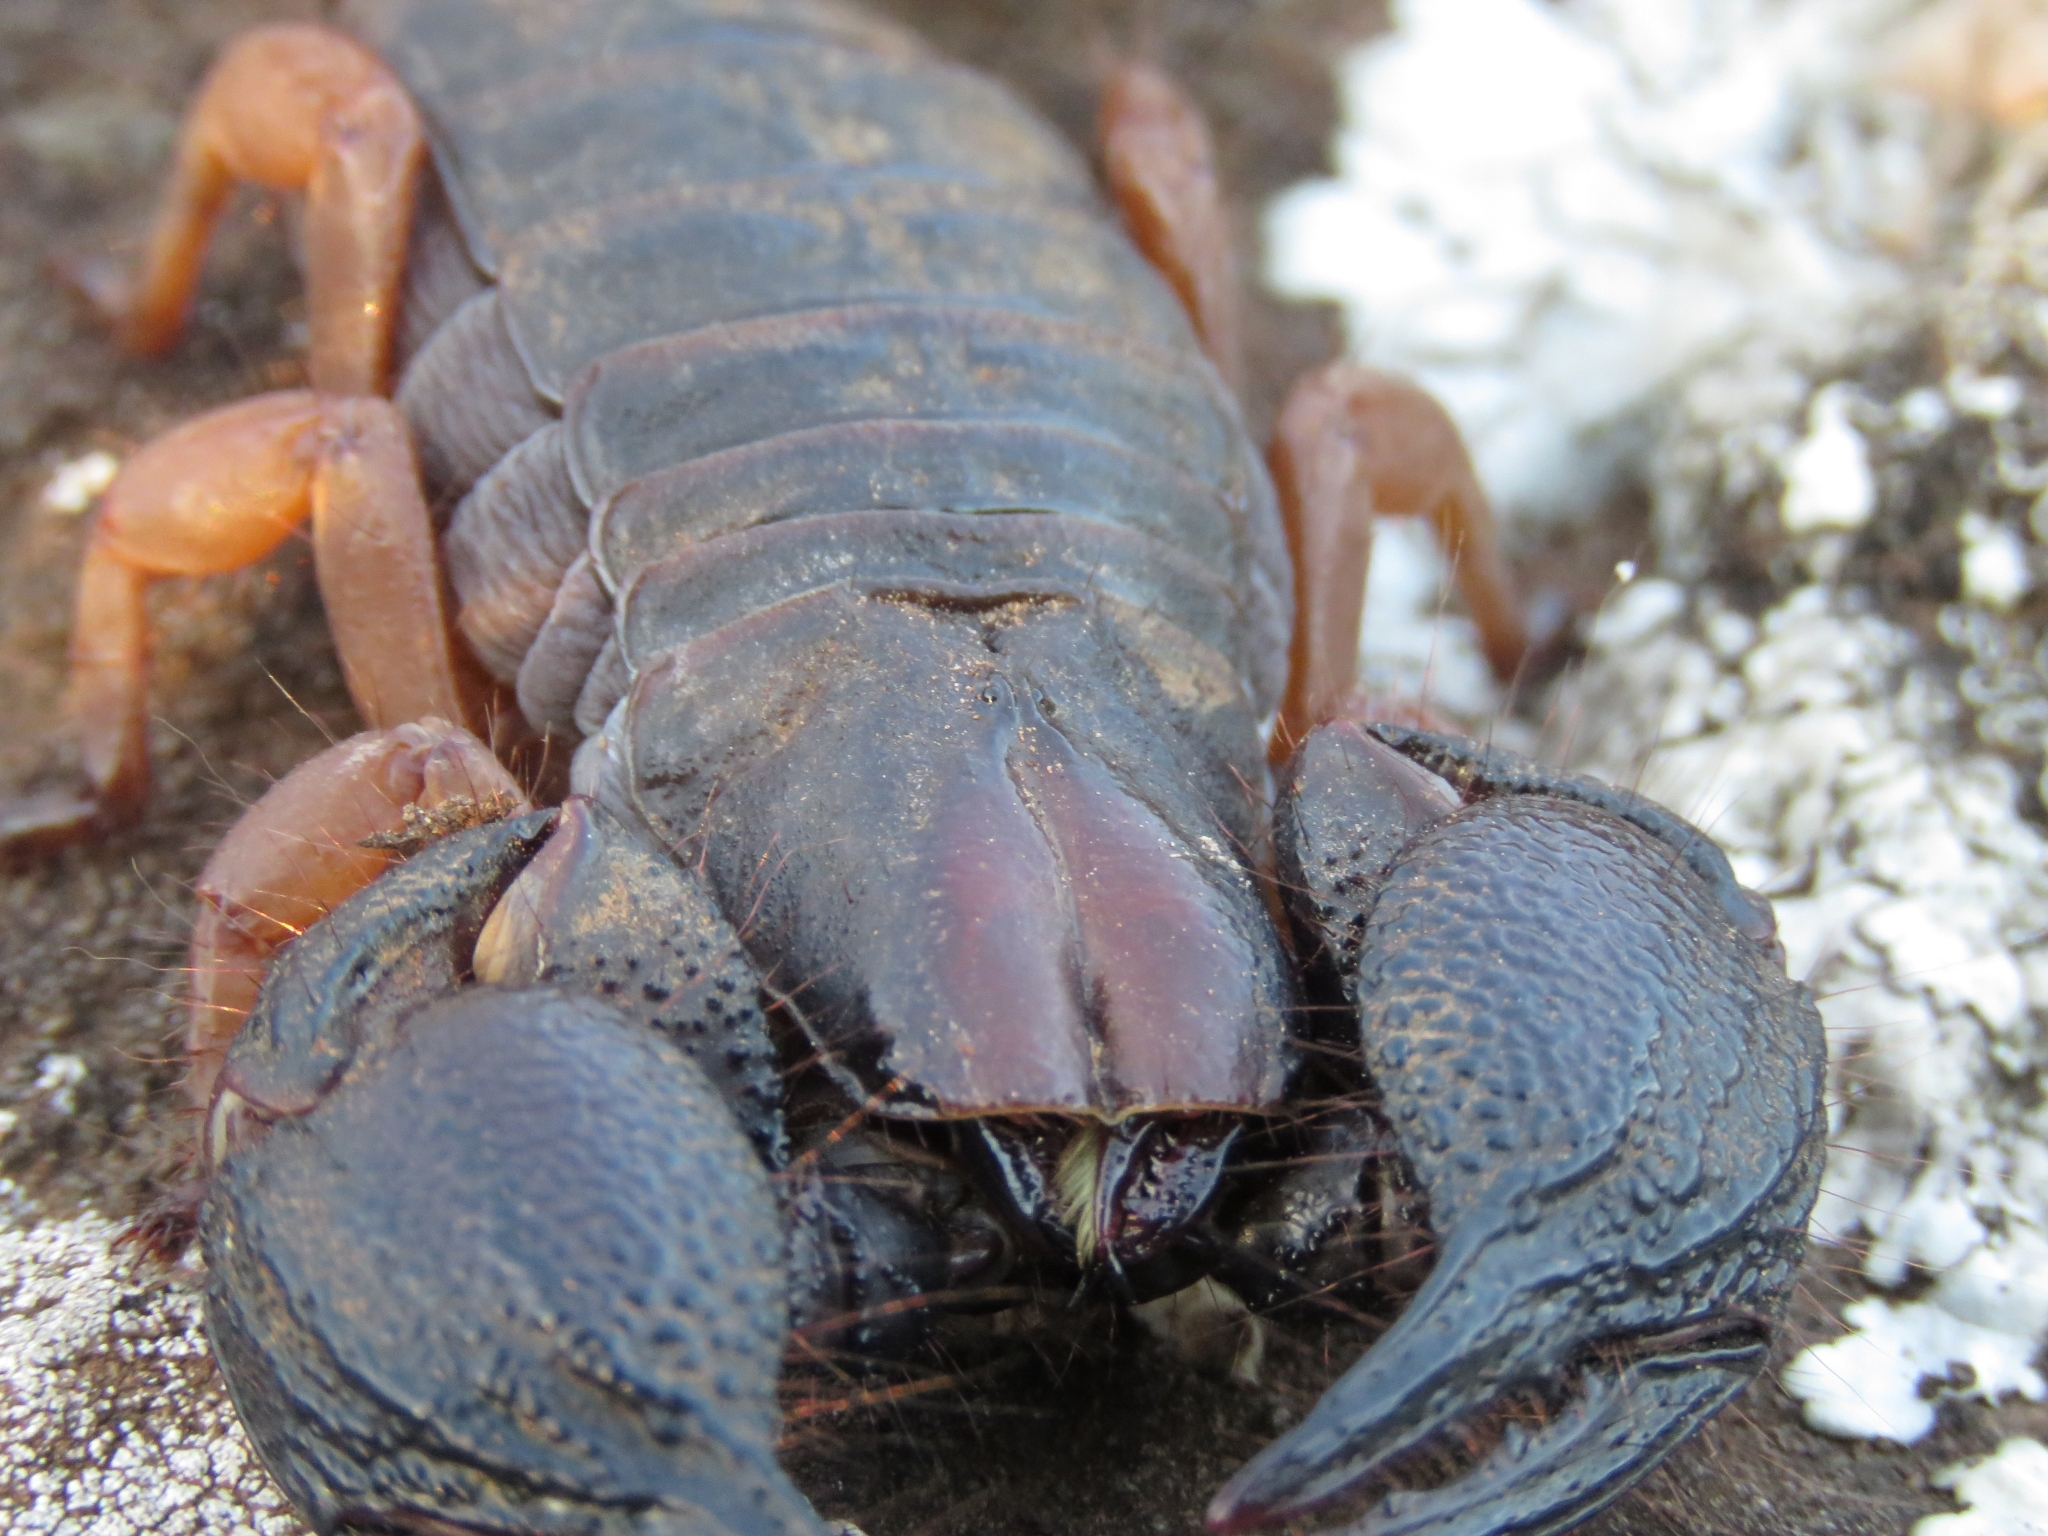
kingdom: Animalia
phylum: Arthropoda
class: Arachnida
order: Scorpiones
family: Scorpionidae
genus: Opistophthalmus
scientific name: Opistophthalmus latimanus
